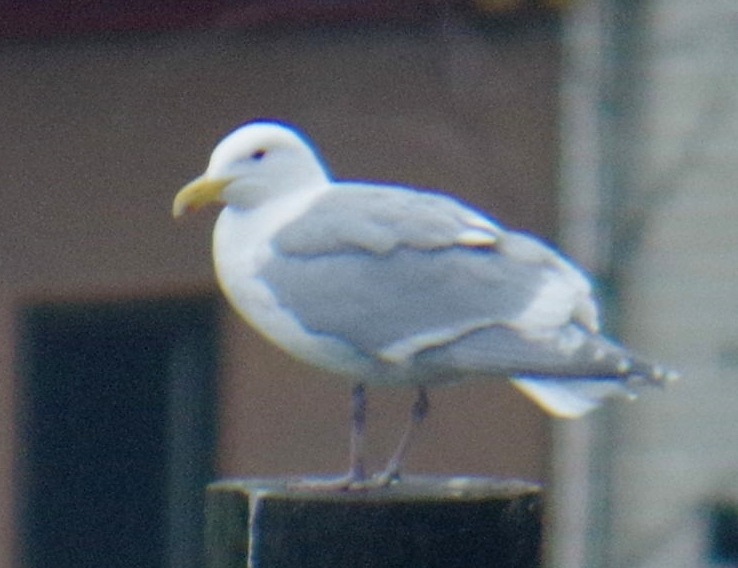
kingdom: Animalia
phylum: Chordata
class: Aves
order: Charadriiformes
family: Laridae
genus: Larus
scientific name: Larus glaucescens
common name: Glaucous-winged gull
